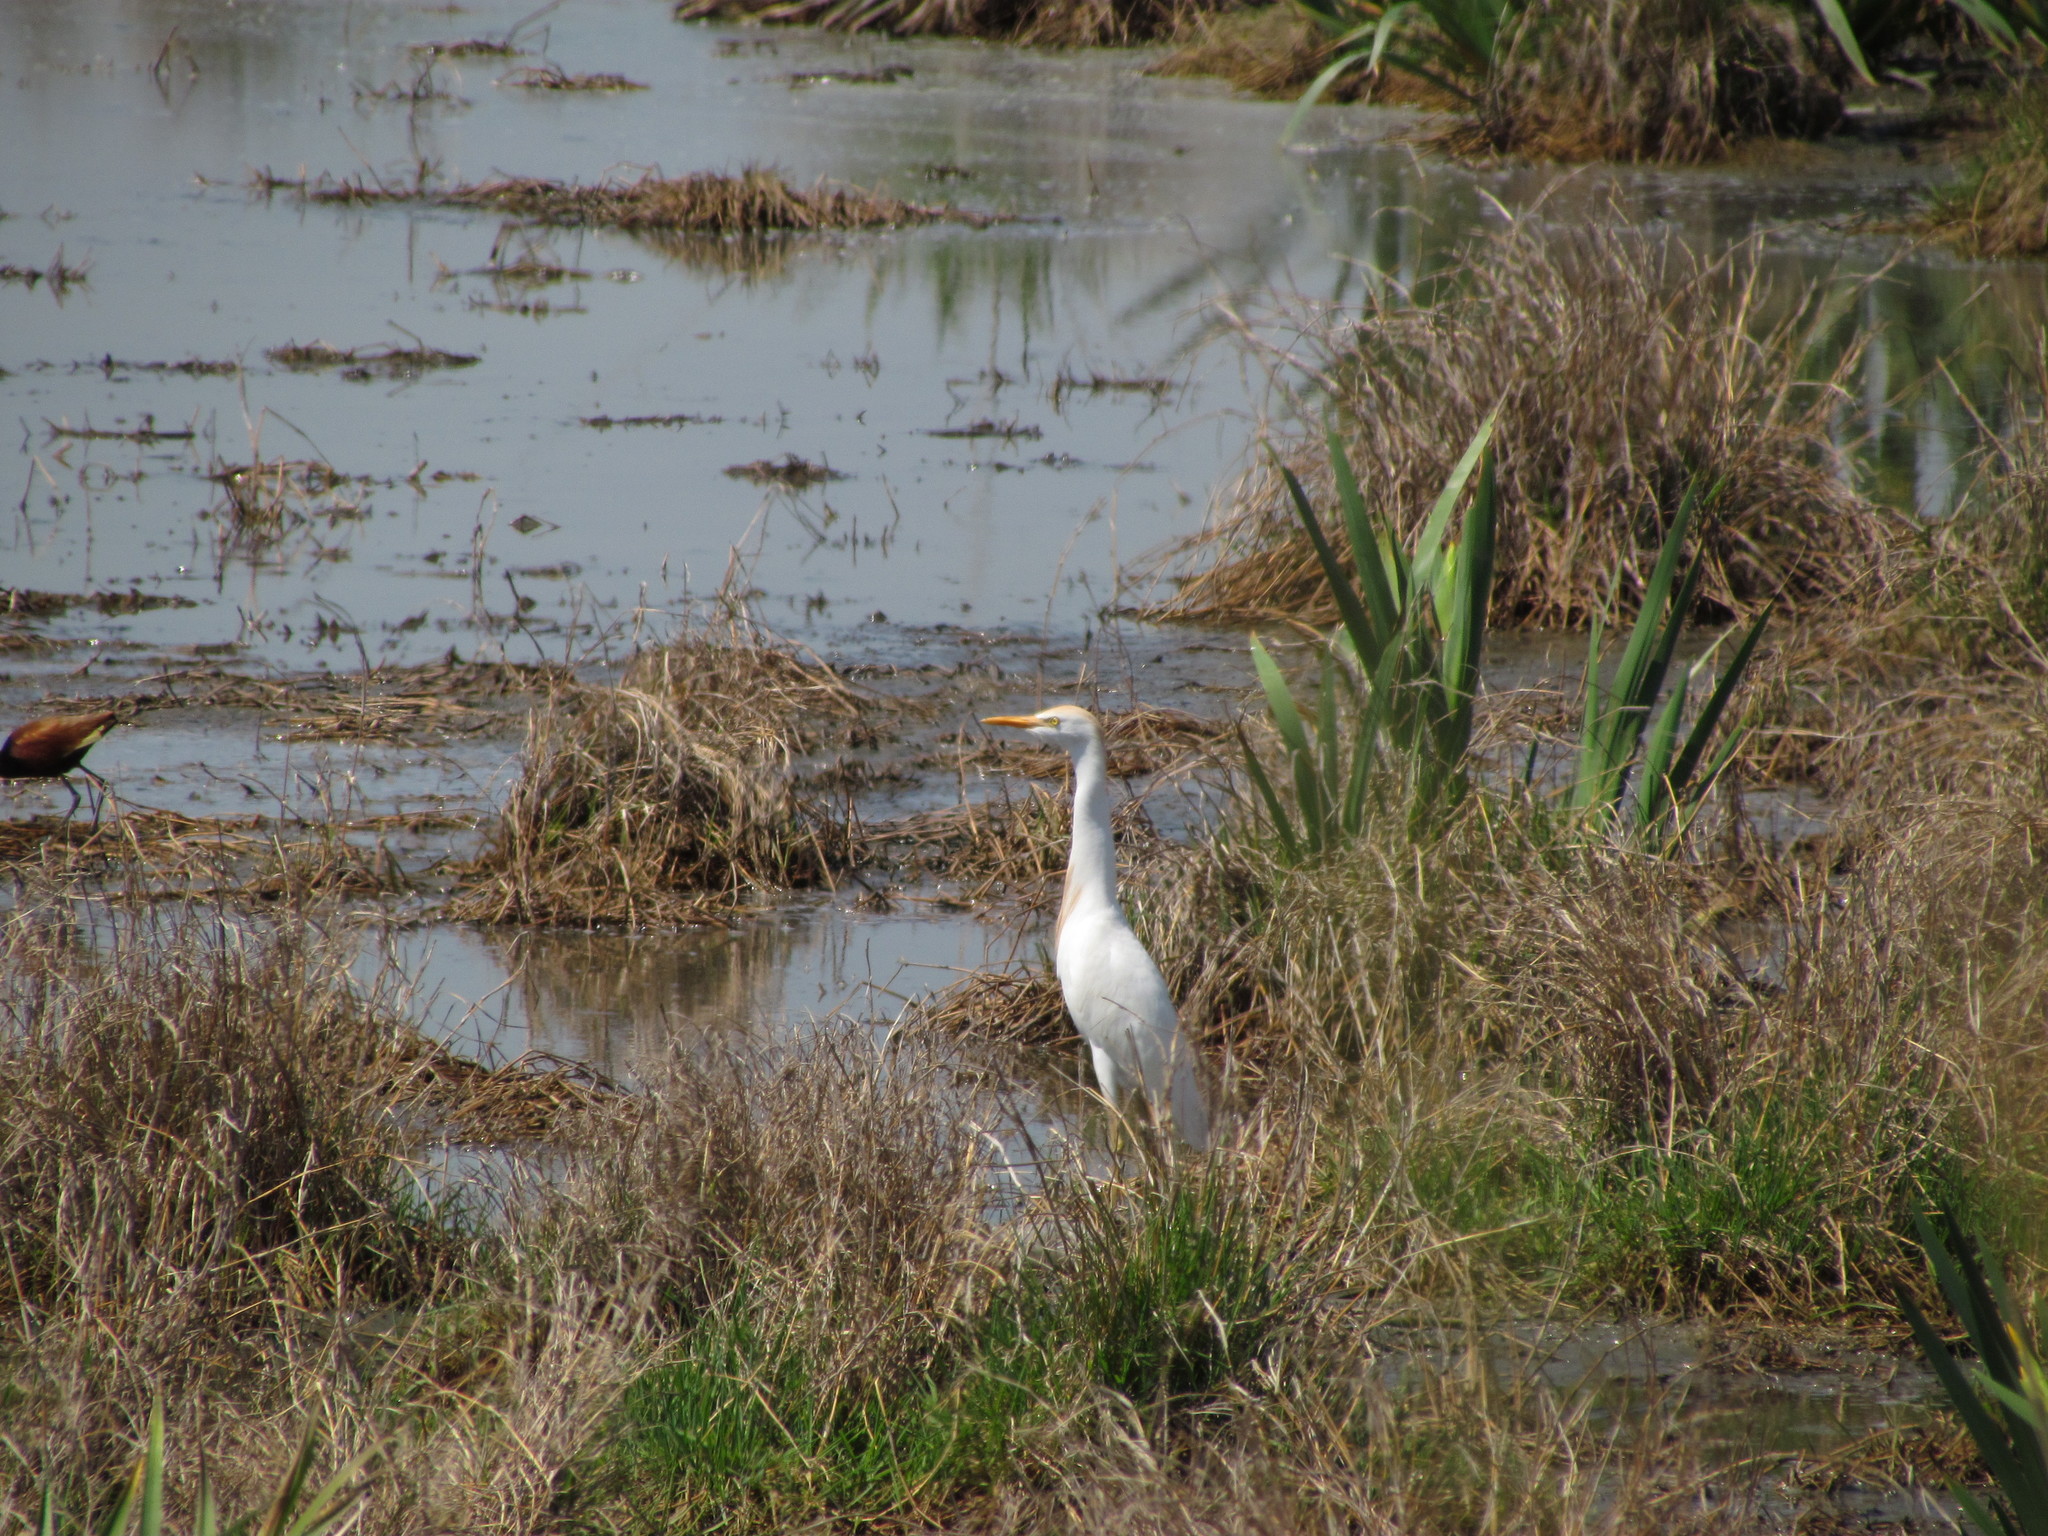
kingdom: Animalia
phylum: Chordata
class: Aves
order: Pelecaniformes
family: Ardeidae
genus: Bubulcus
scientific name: Bubulcus ibis
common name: Cattle egret
